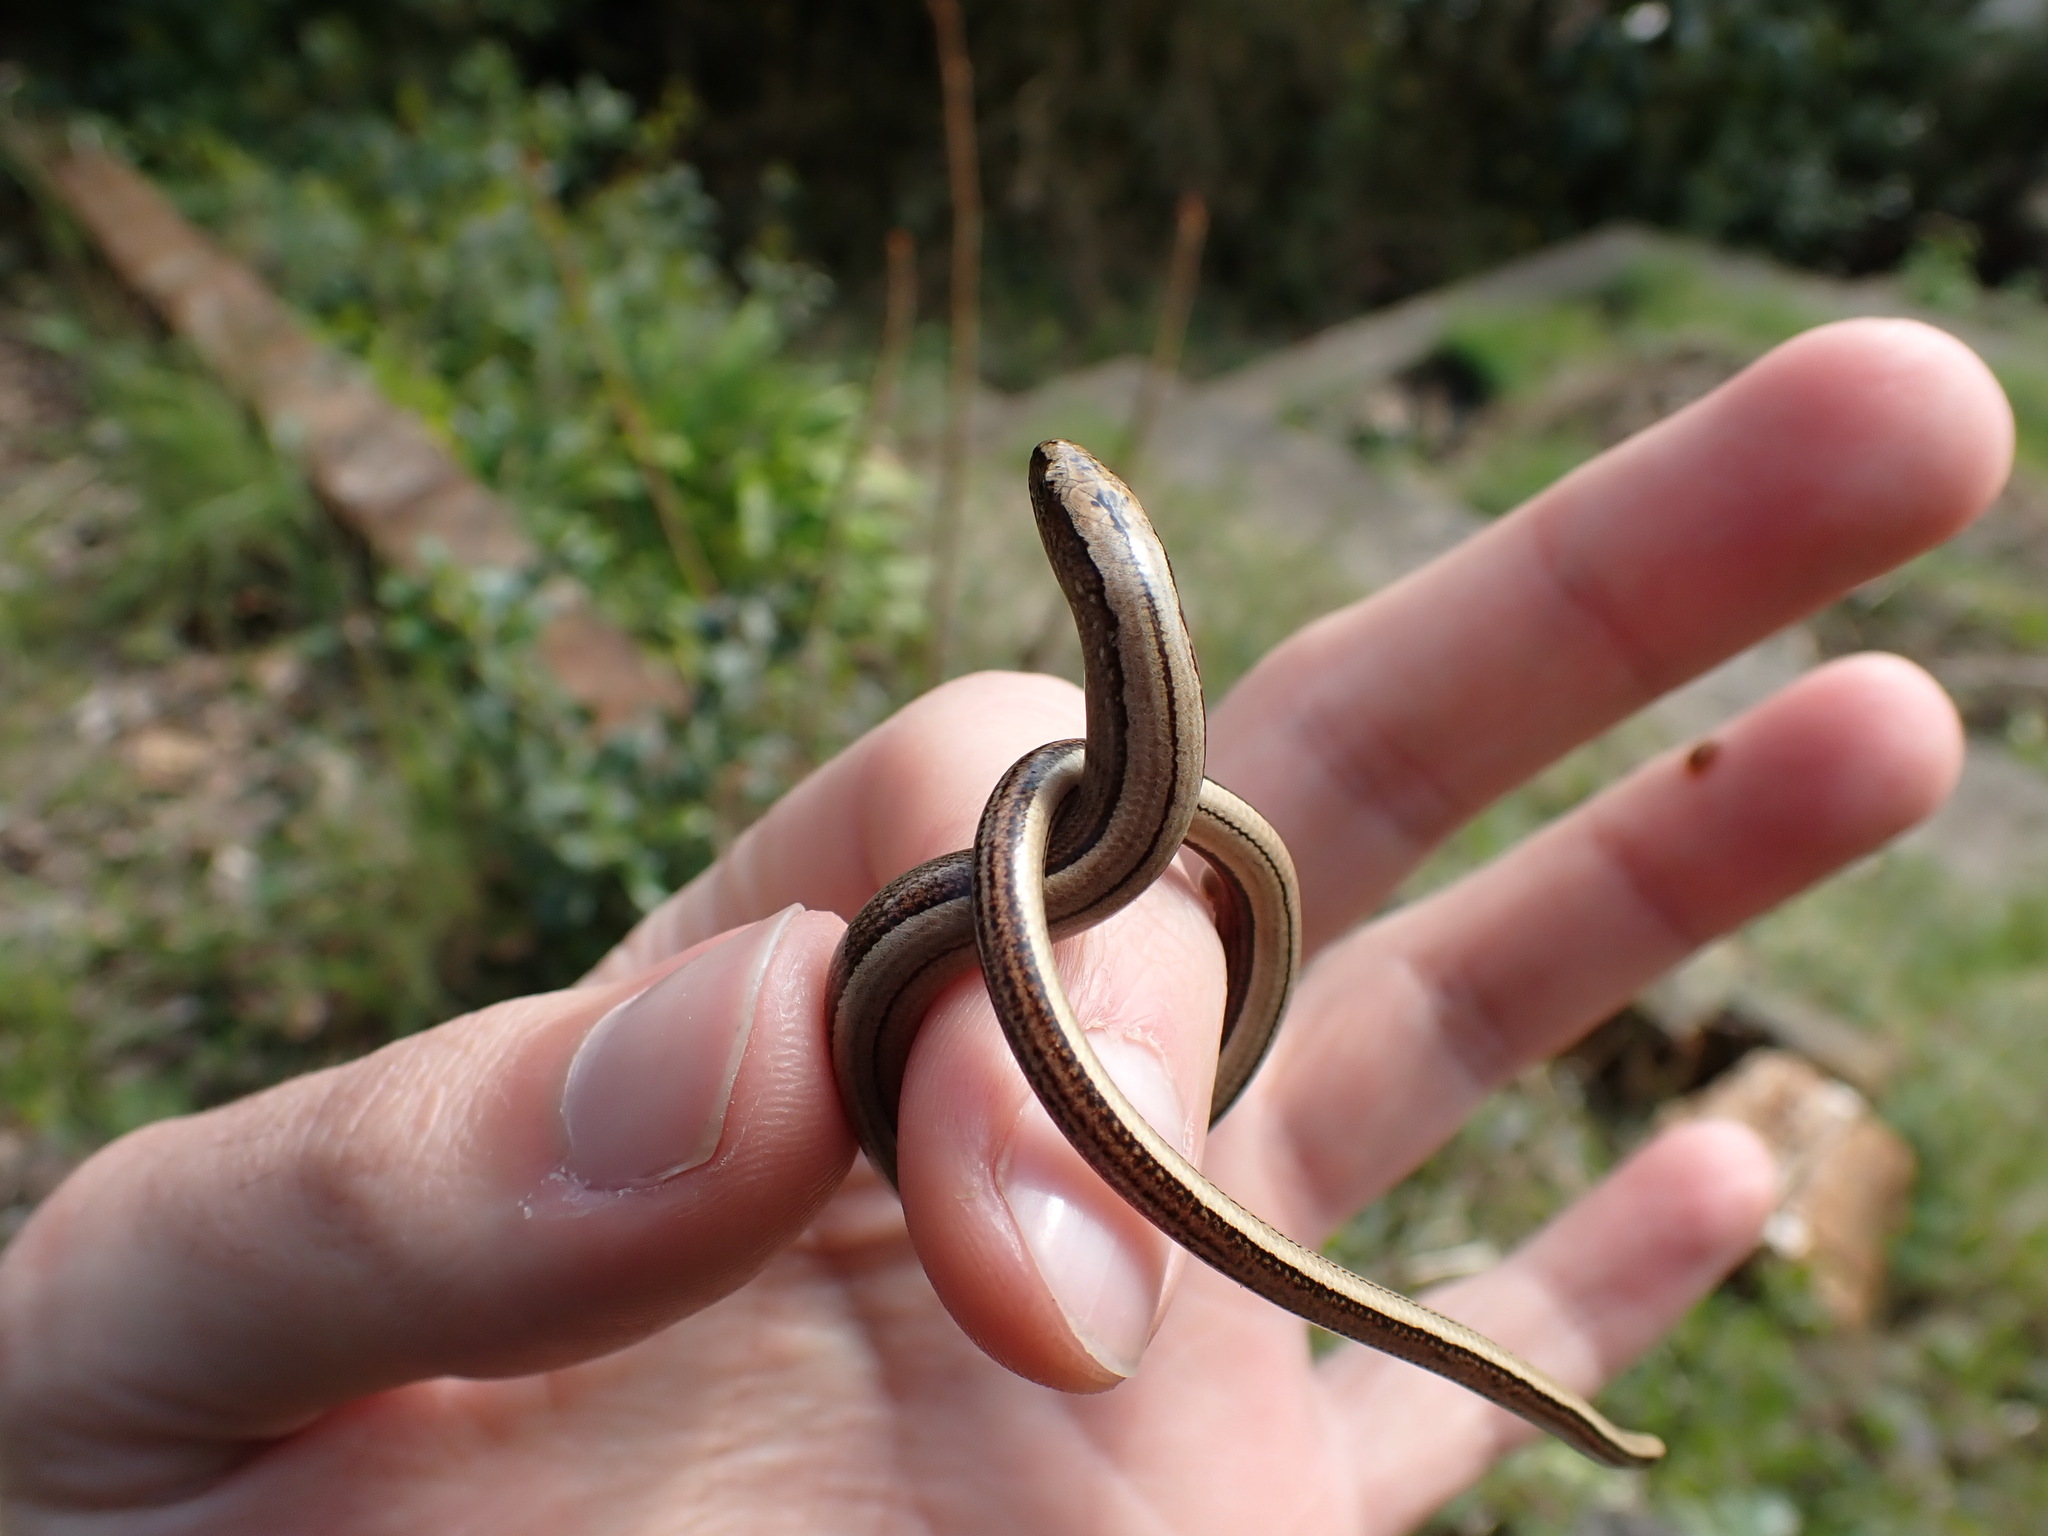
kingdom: Animalia
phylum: Chordata
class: Squamata
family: Anguidae
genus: Anguis
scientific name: Anguis fragilis
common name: Slow worm
